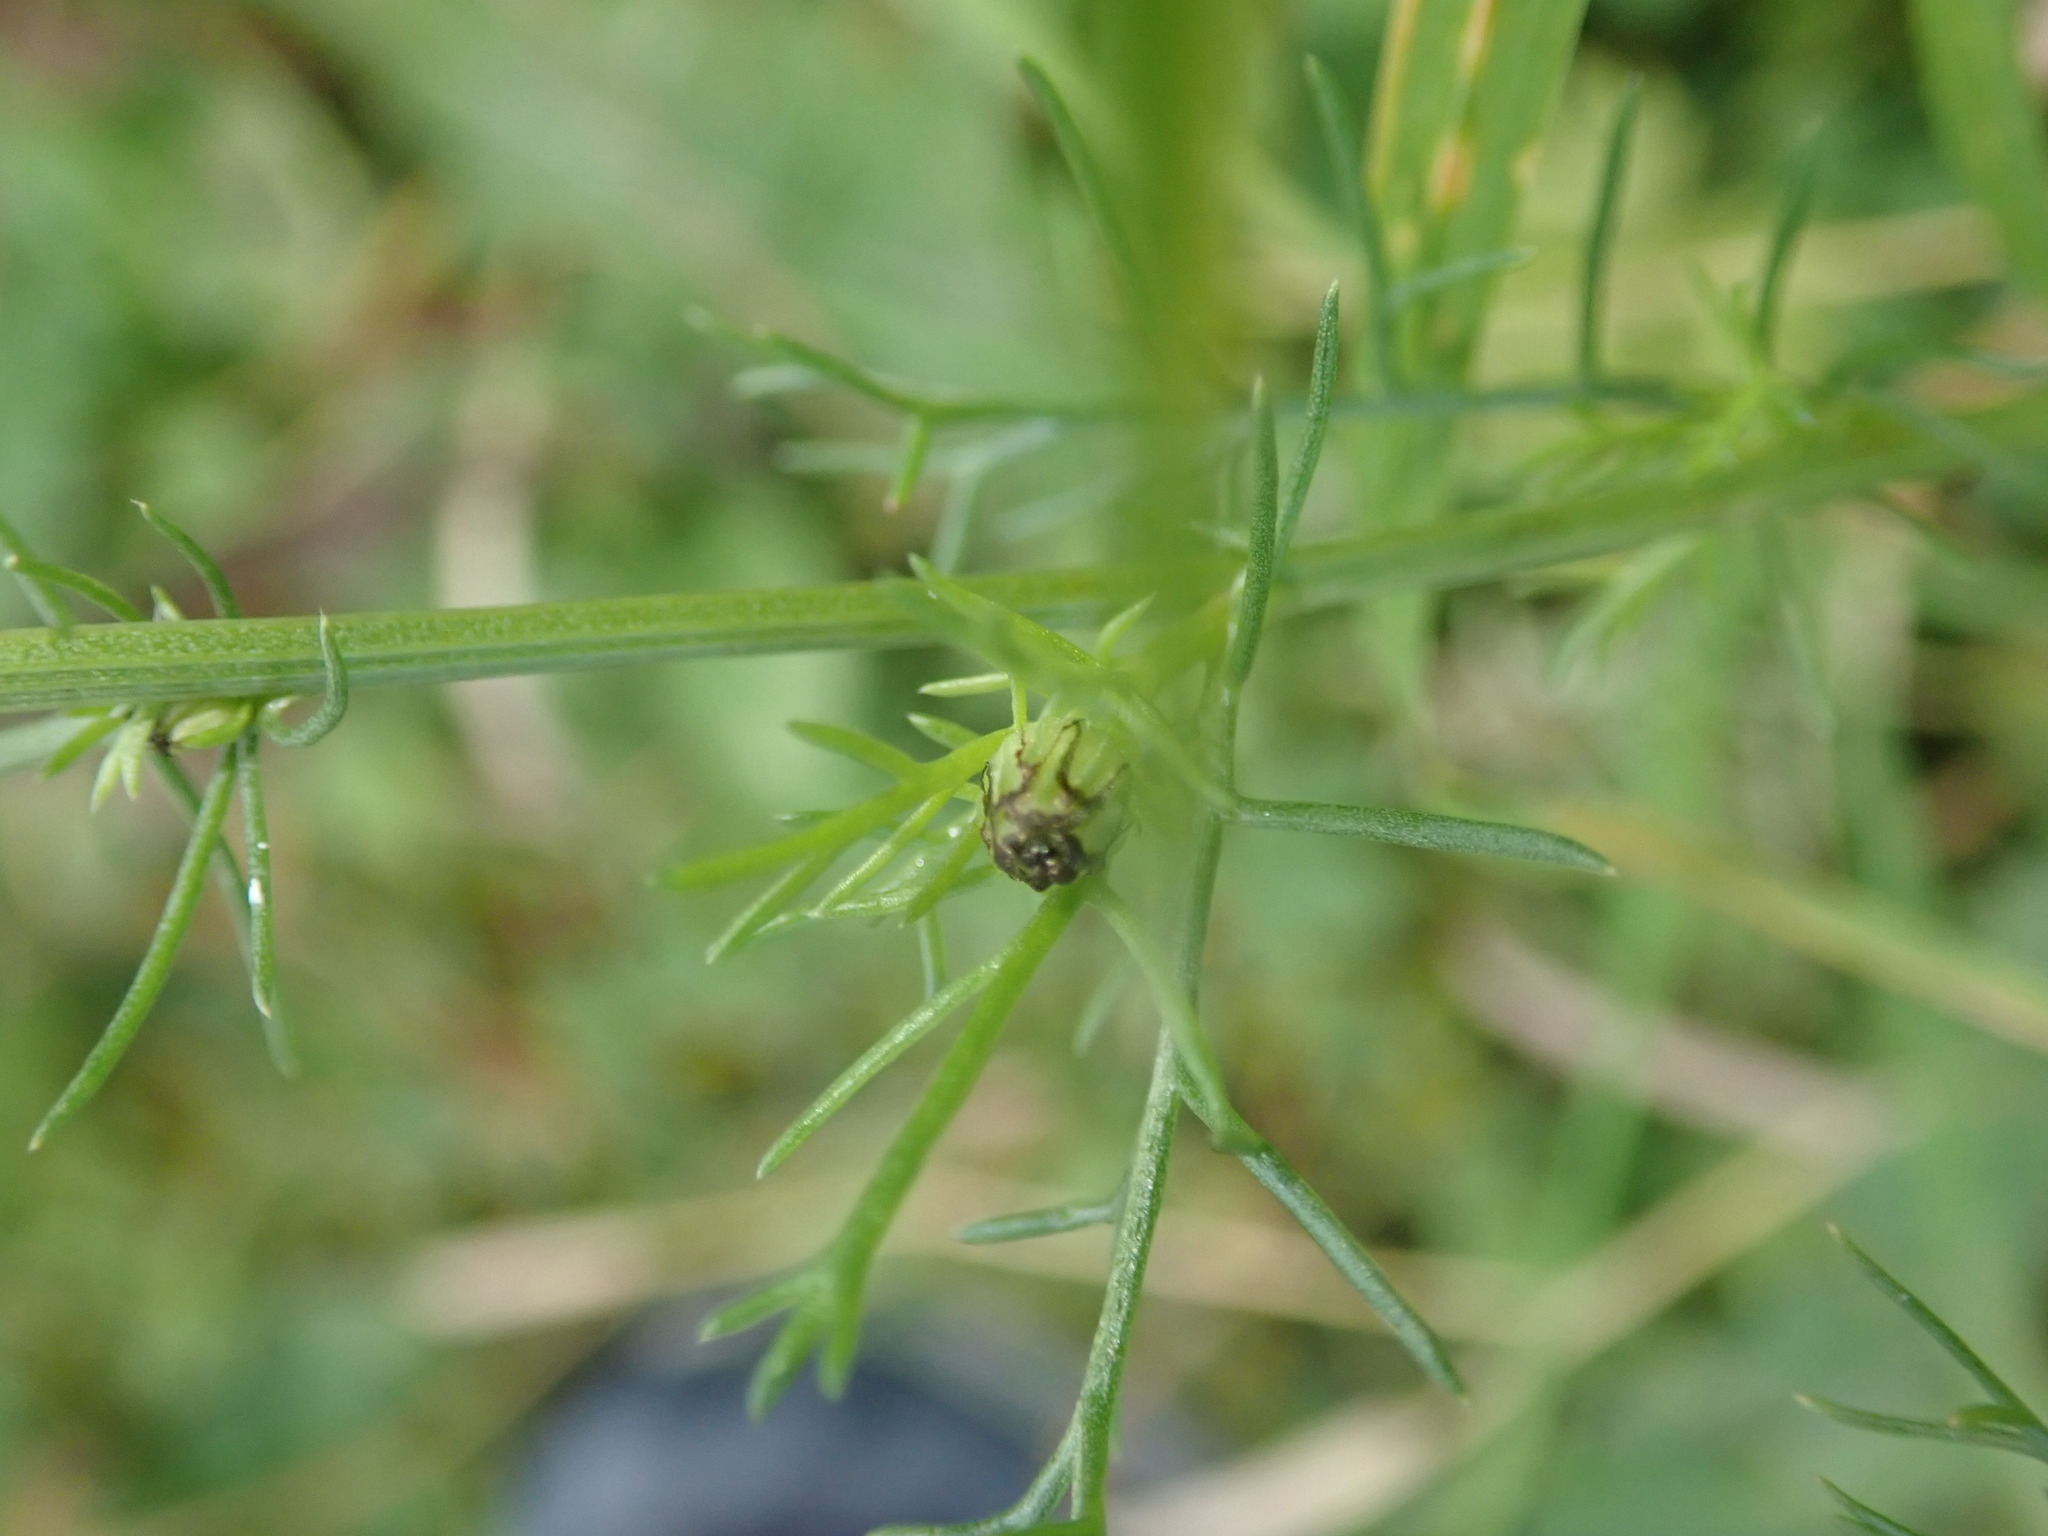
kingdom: Plantae
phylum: Tracheophyta
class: Magnoliopsida
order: Asterales
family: Asteraceae
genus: Tripleurospermum
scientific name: Tripleurospermum inodorum
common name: Scentless mayweed
